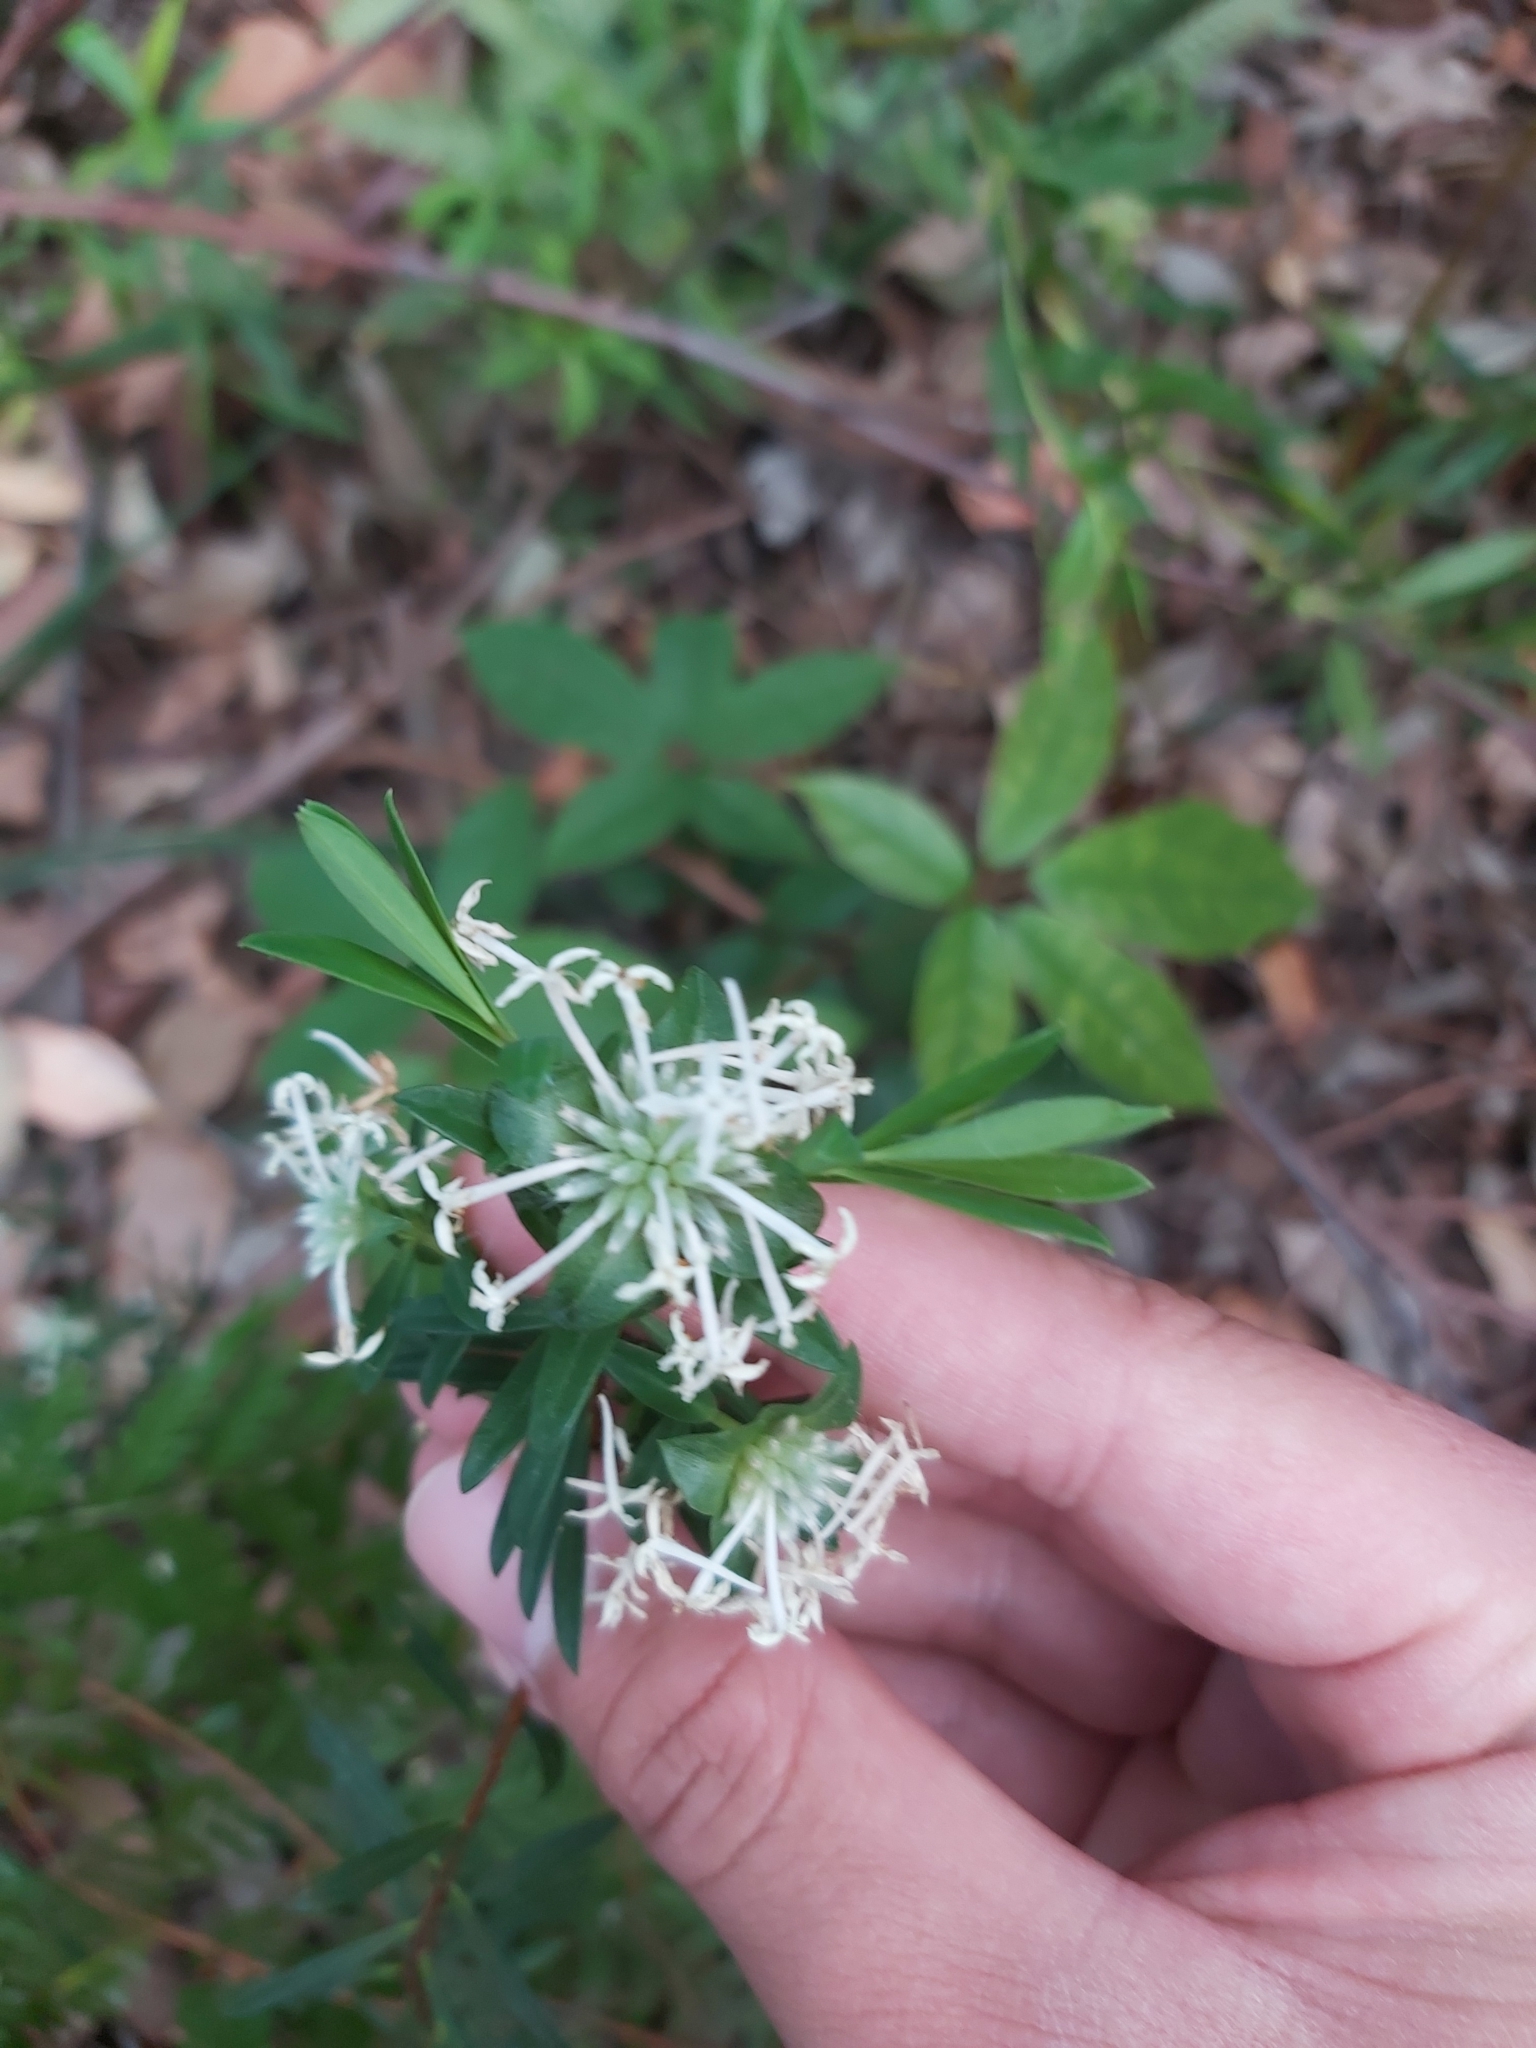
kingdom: Plantae
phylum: Tracheophyta
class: Magnoliopsida
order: Malvales
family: Thymelaeaceae
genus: Pimelea
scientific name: Pimelea linifolia
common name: Queen-of-the-bush
